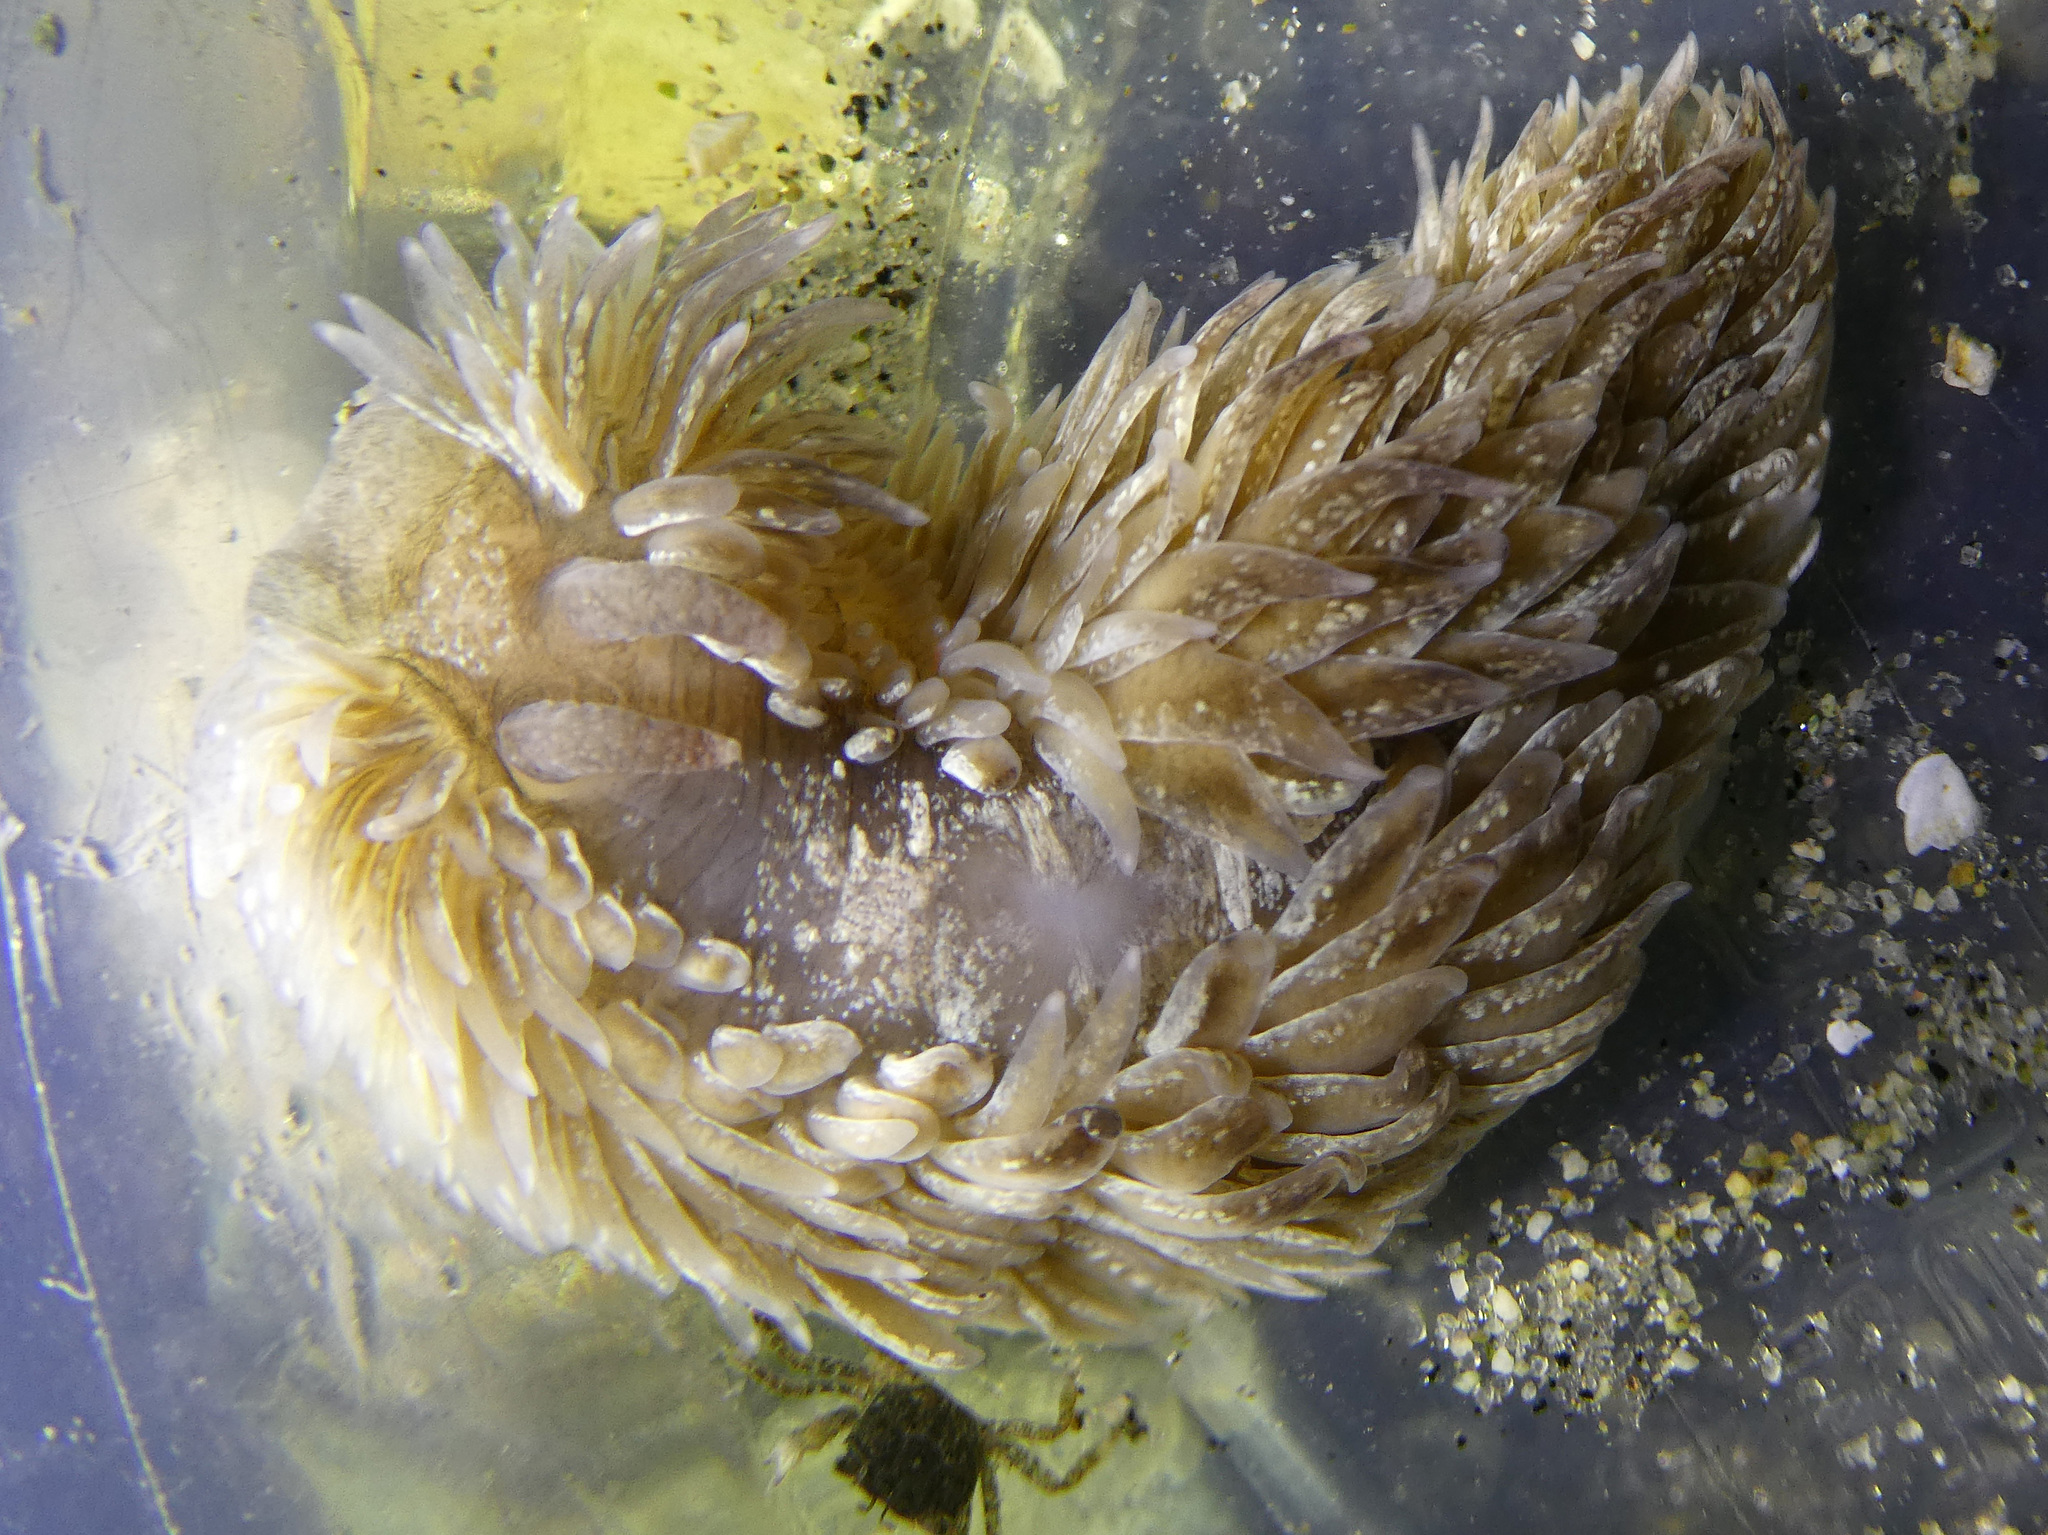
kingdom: Animalia
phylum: Mollusca
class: Gastropoda
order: Nudibranchia
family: Aeolidiidae
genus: Aeolidia
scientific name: Aeolidia loui
